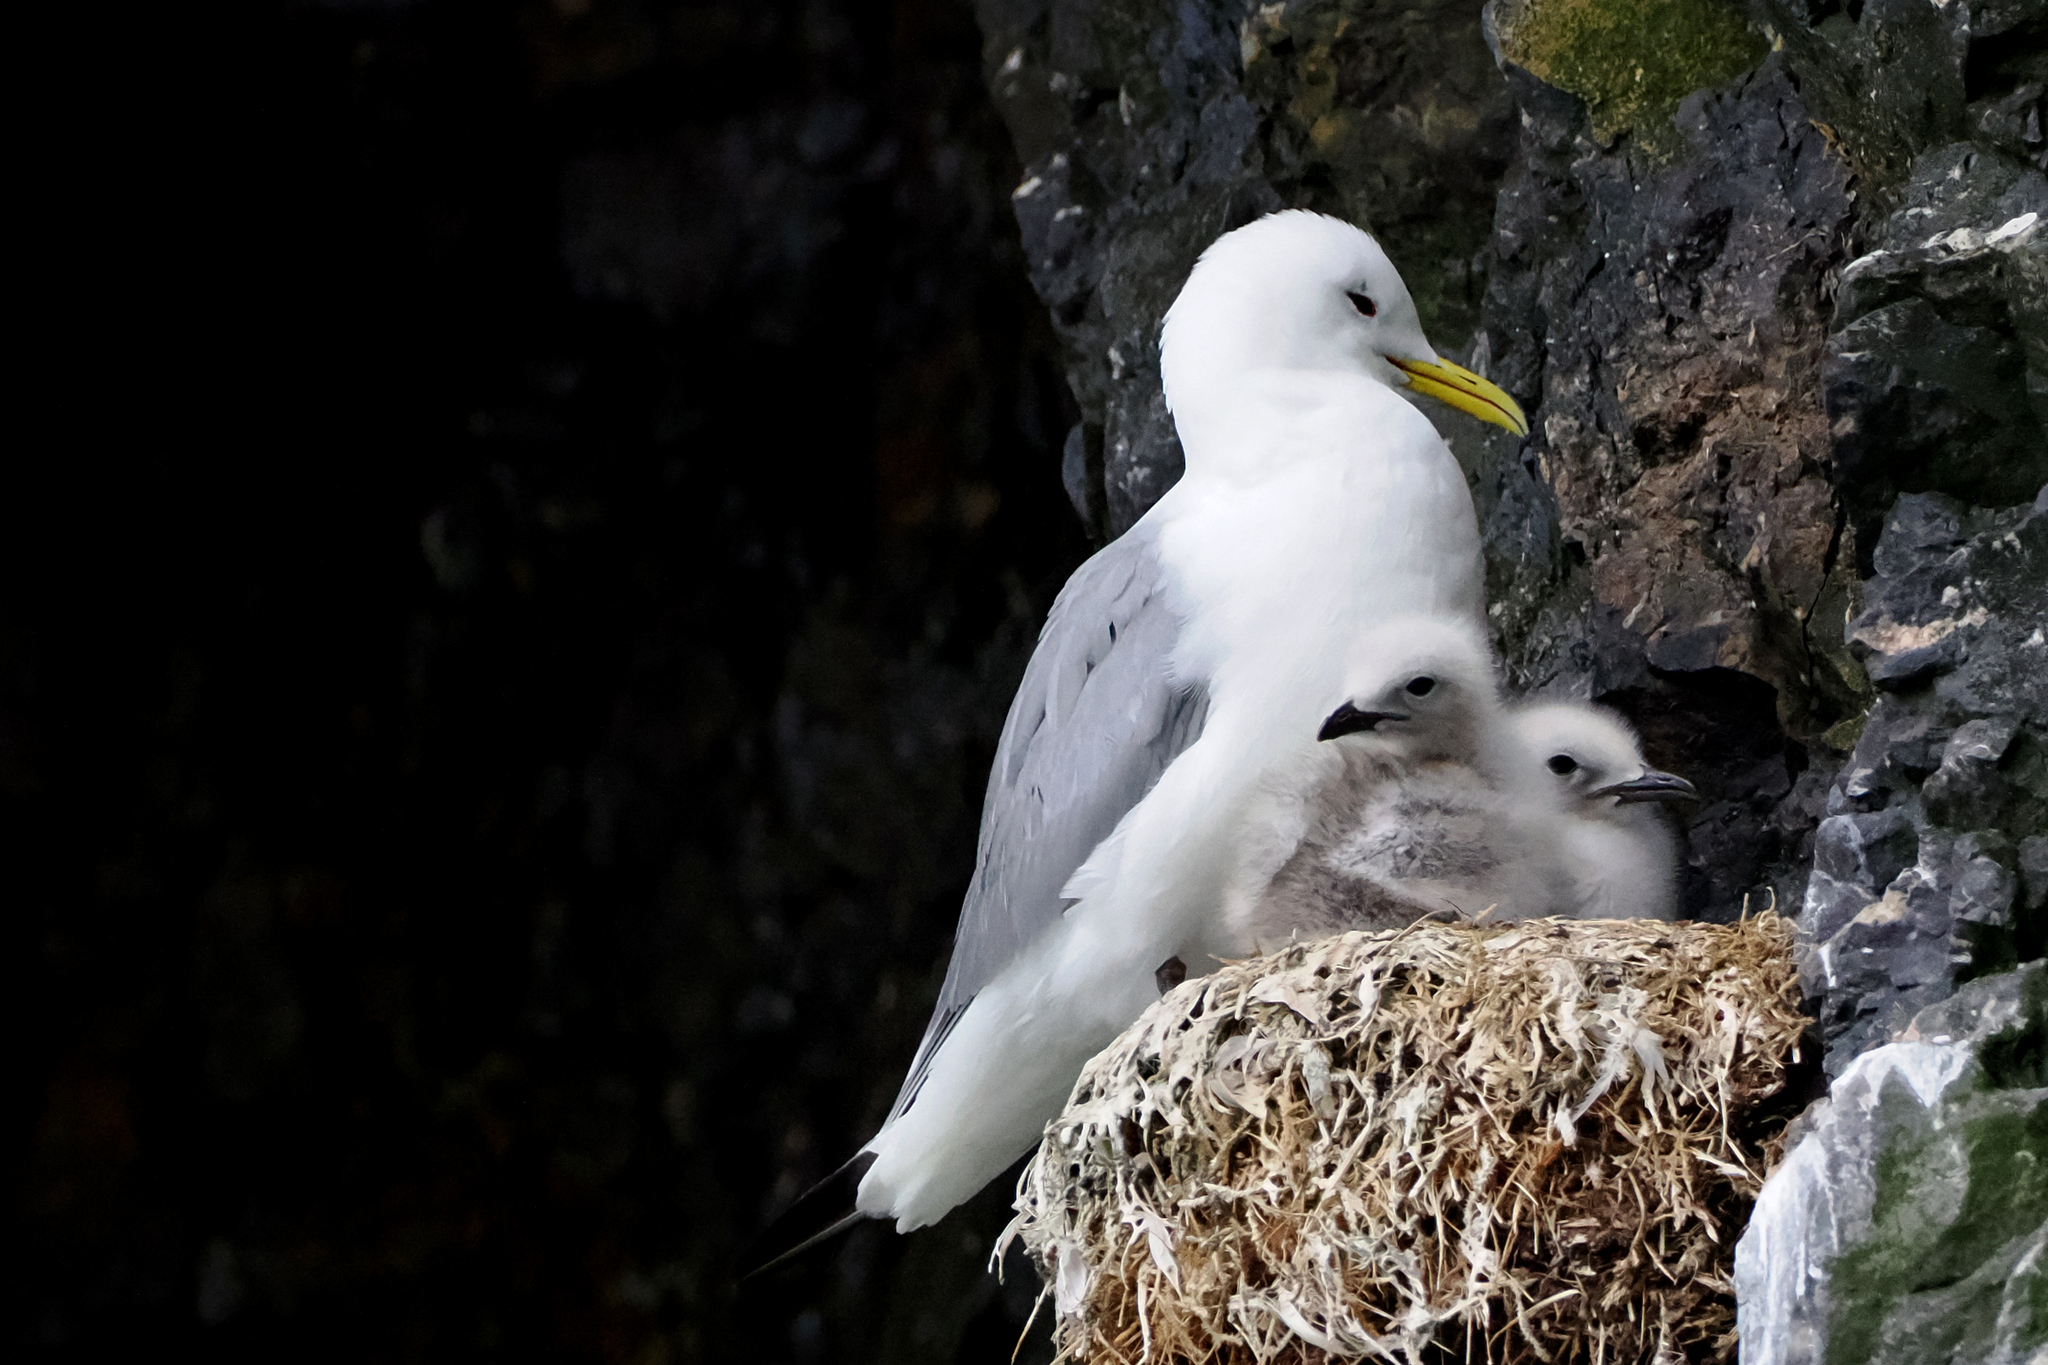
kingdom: Animalia
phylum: Chordata
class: Aves
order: Charadriiformes
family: Laridae
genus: Rissa
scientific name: Rissa tridactyla
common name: Black-legged kittiwake
